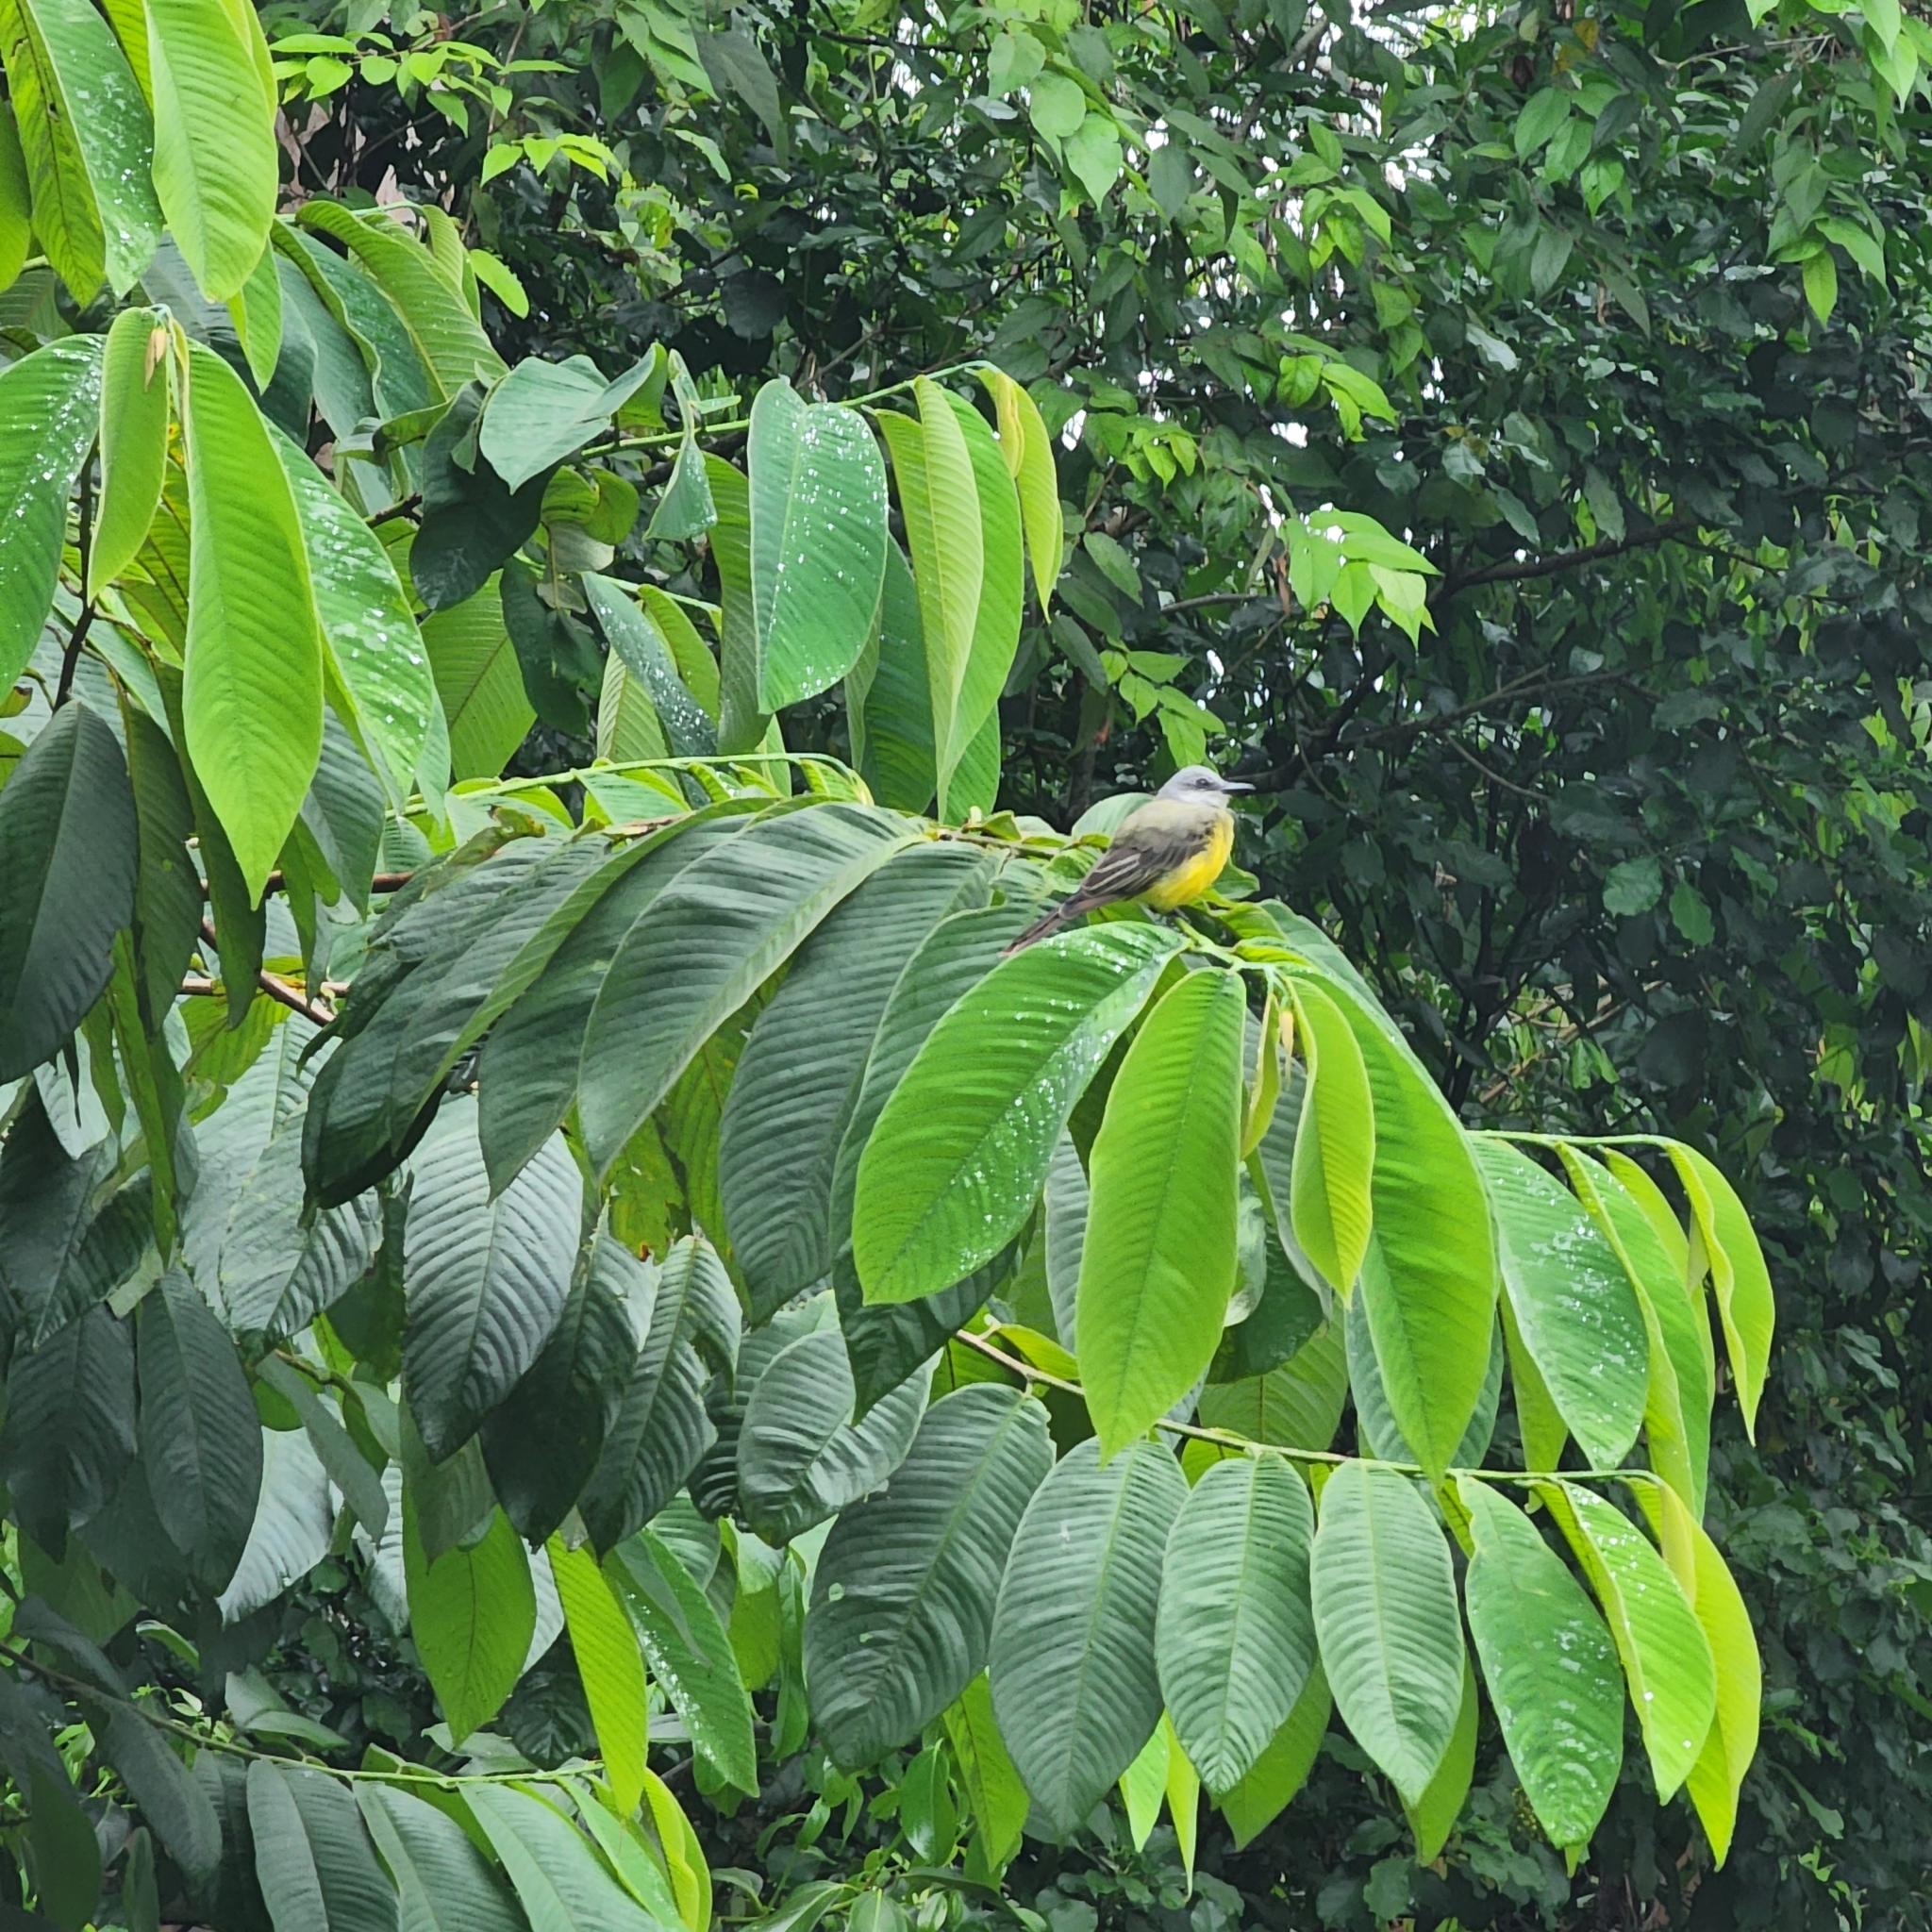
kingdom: Animalia
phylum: Chordata
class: Aves
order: Passeriformes
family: Tyrannidae
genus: Tyrannus
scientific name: Tyrannus melancholicus
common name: Tropical kingbird
